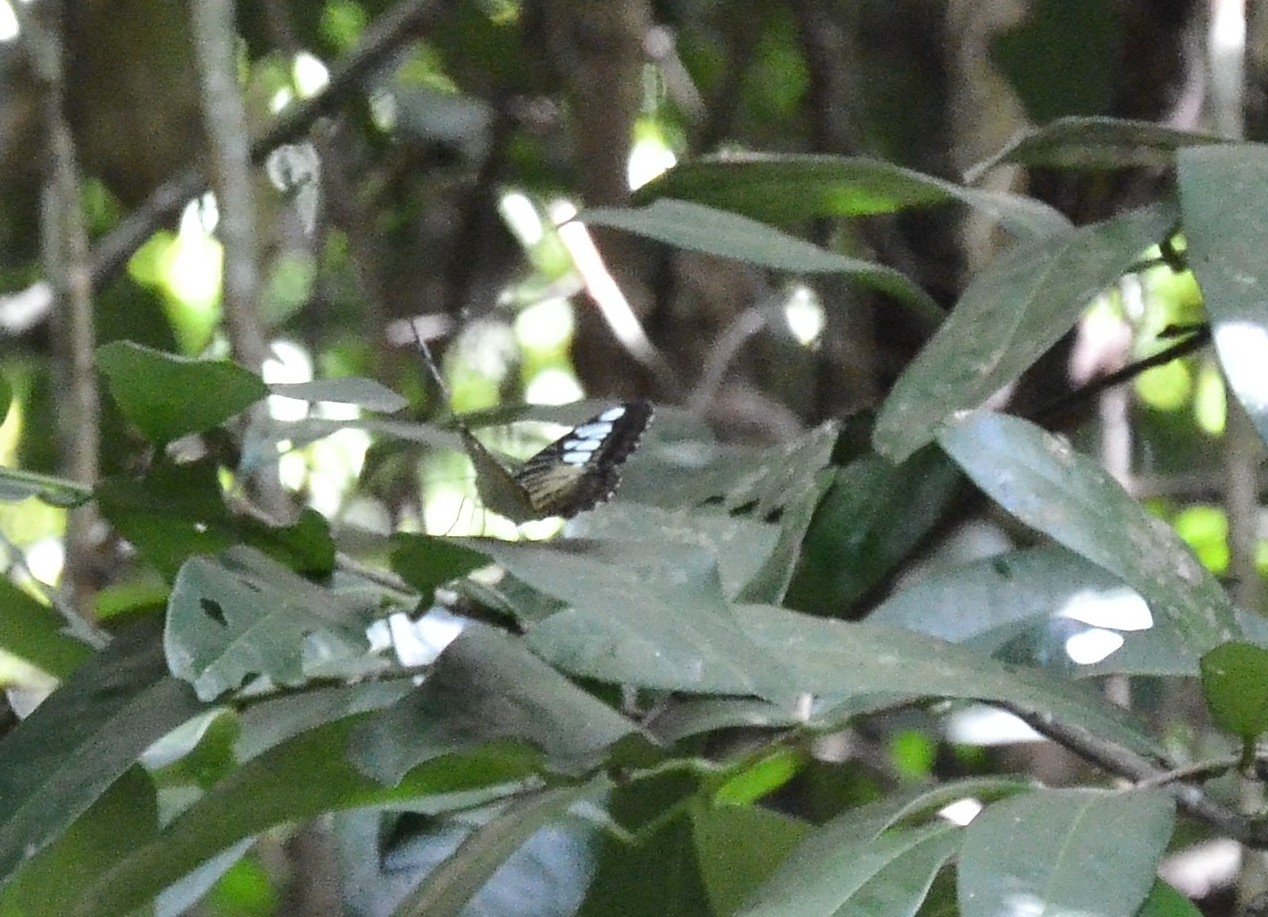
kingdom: Animalia
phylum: Arthropoda
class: Insecta
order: Lepidoptera
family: Nymphalidae
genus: Kallima
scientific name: Kallima sylvia
